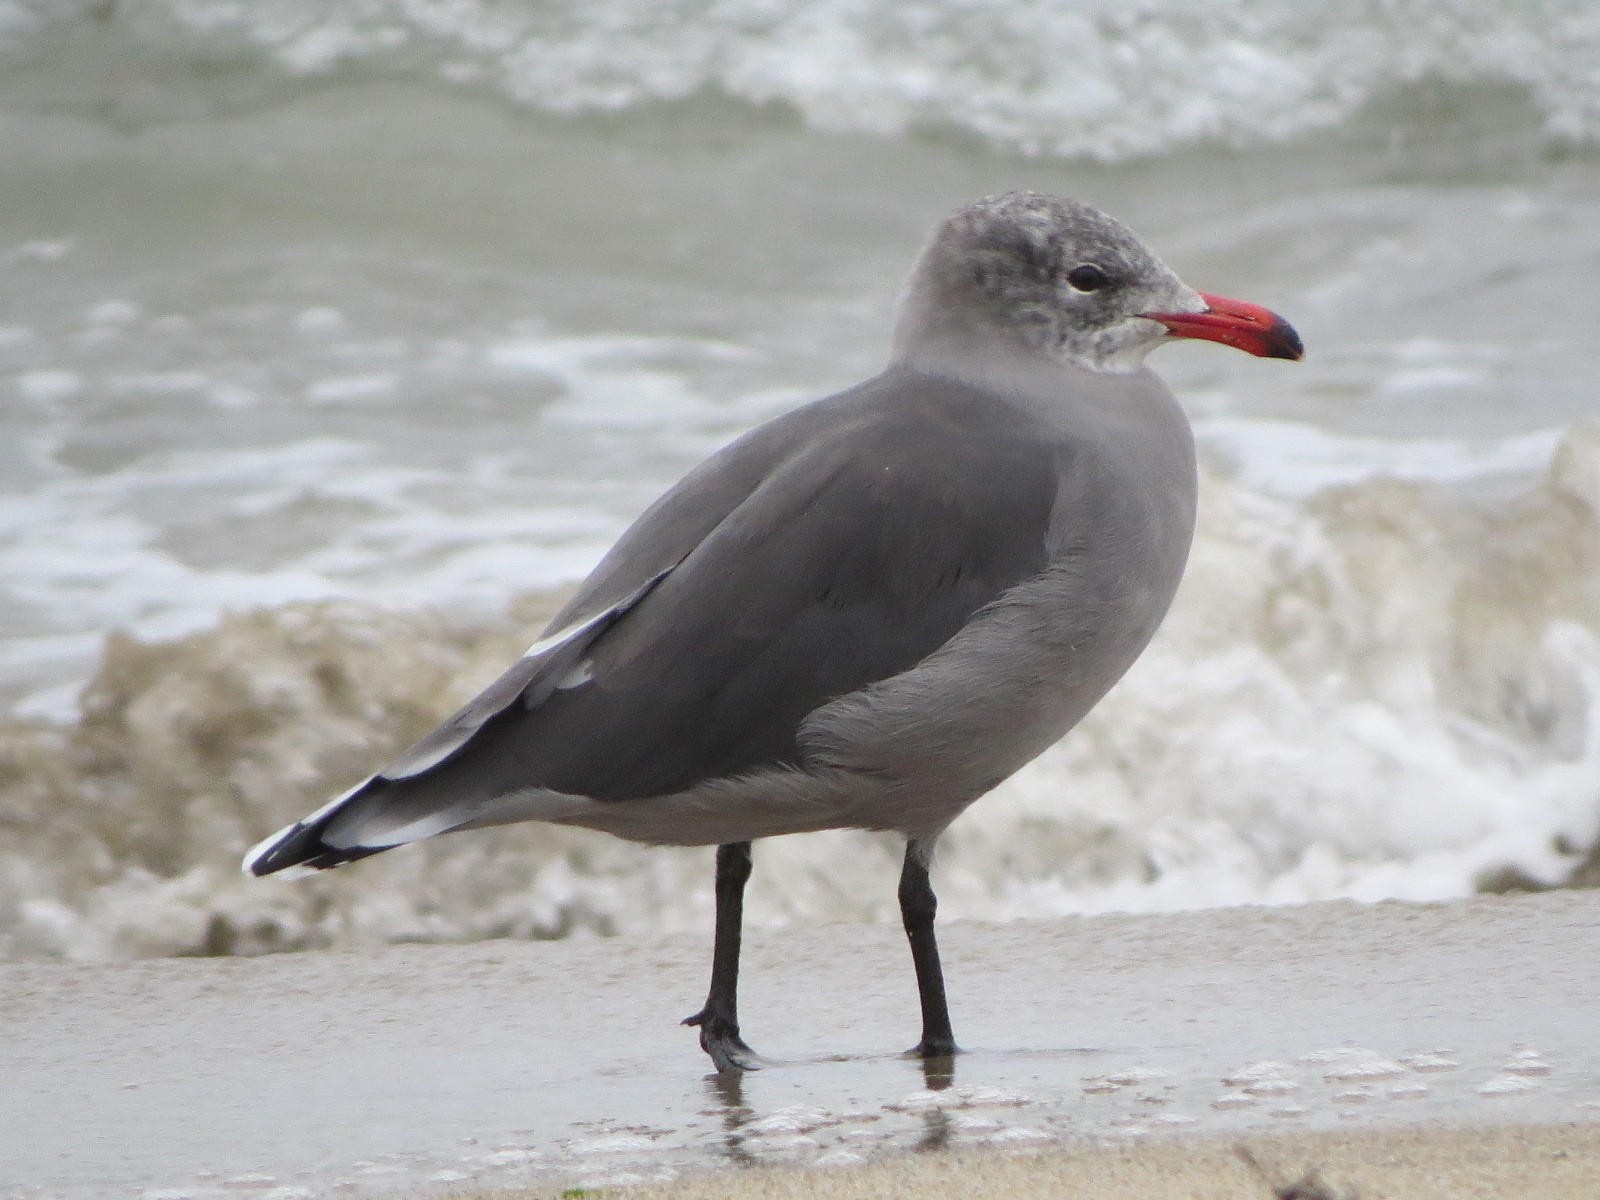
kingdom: Animalia
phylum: Chordata
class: Aves
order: Charadriiformes
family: Laridae
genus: Larus
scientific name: Larus heermanni
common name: Heermann's gull
